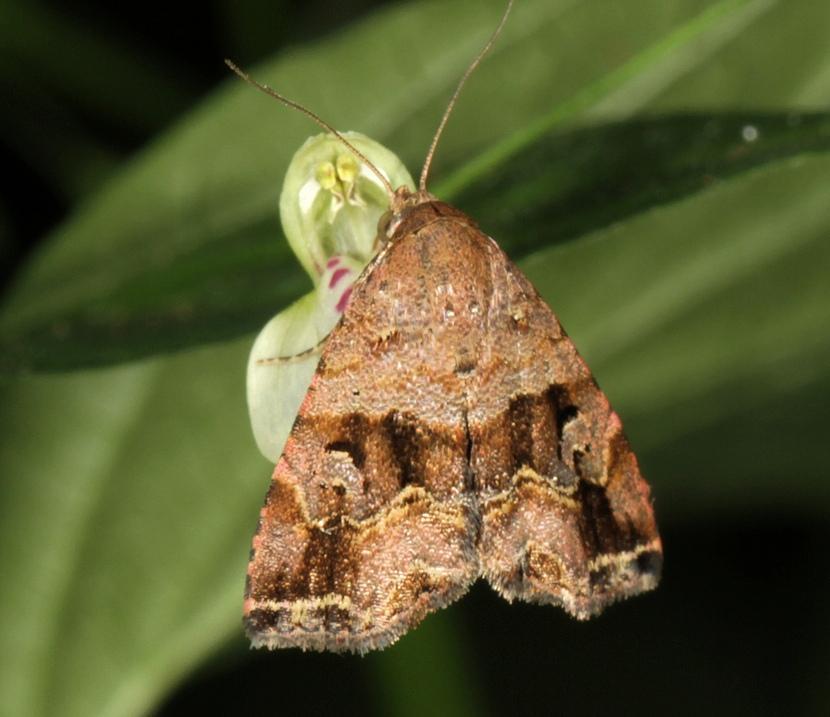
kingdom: Animalia
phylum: Arthropoda
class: Insecta
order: Lepidoptera
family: Noctuidae
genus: Ozarba
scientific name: Ozarba corniculans
